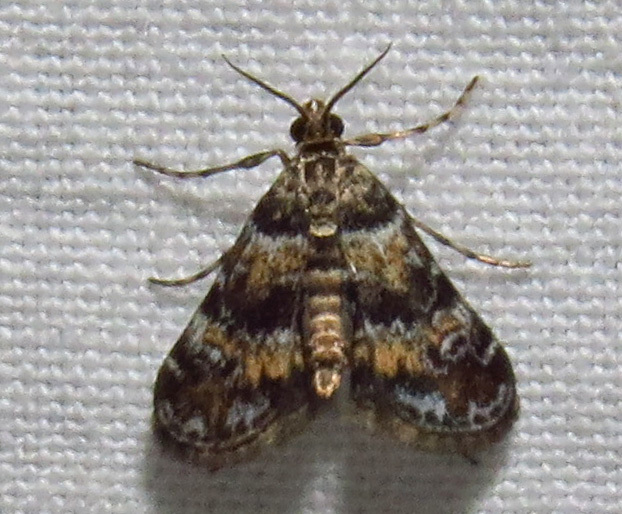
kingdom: Animalia
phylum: Arthropoda
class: Insecta
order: Lepidoptera
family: Crambidae
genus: Elophila
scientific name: Elophila obliteralis
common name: Waterlily leafcutter moth
